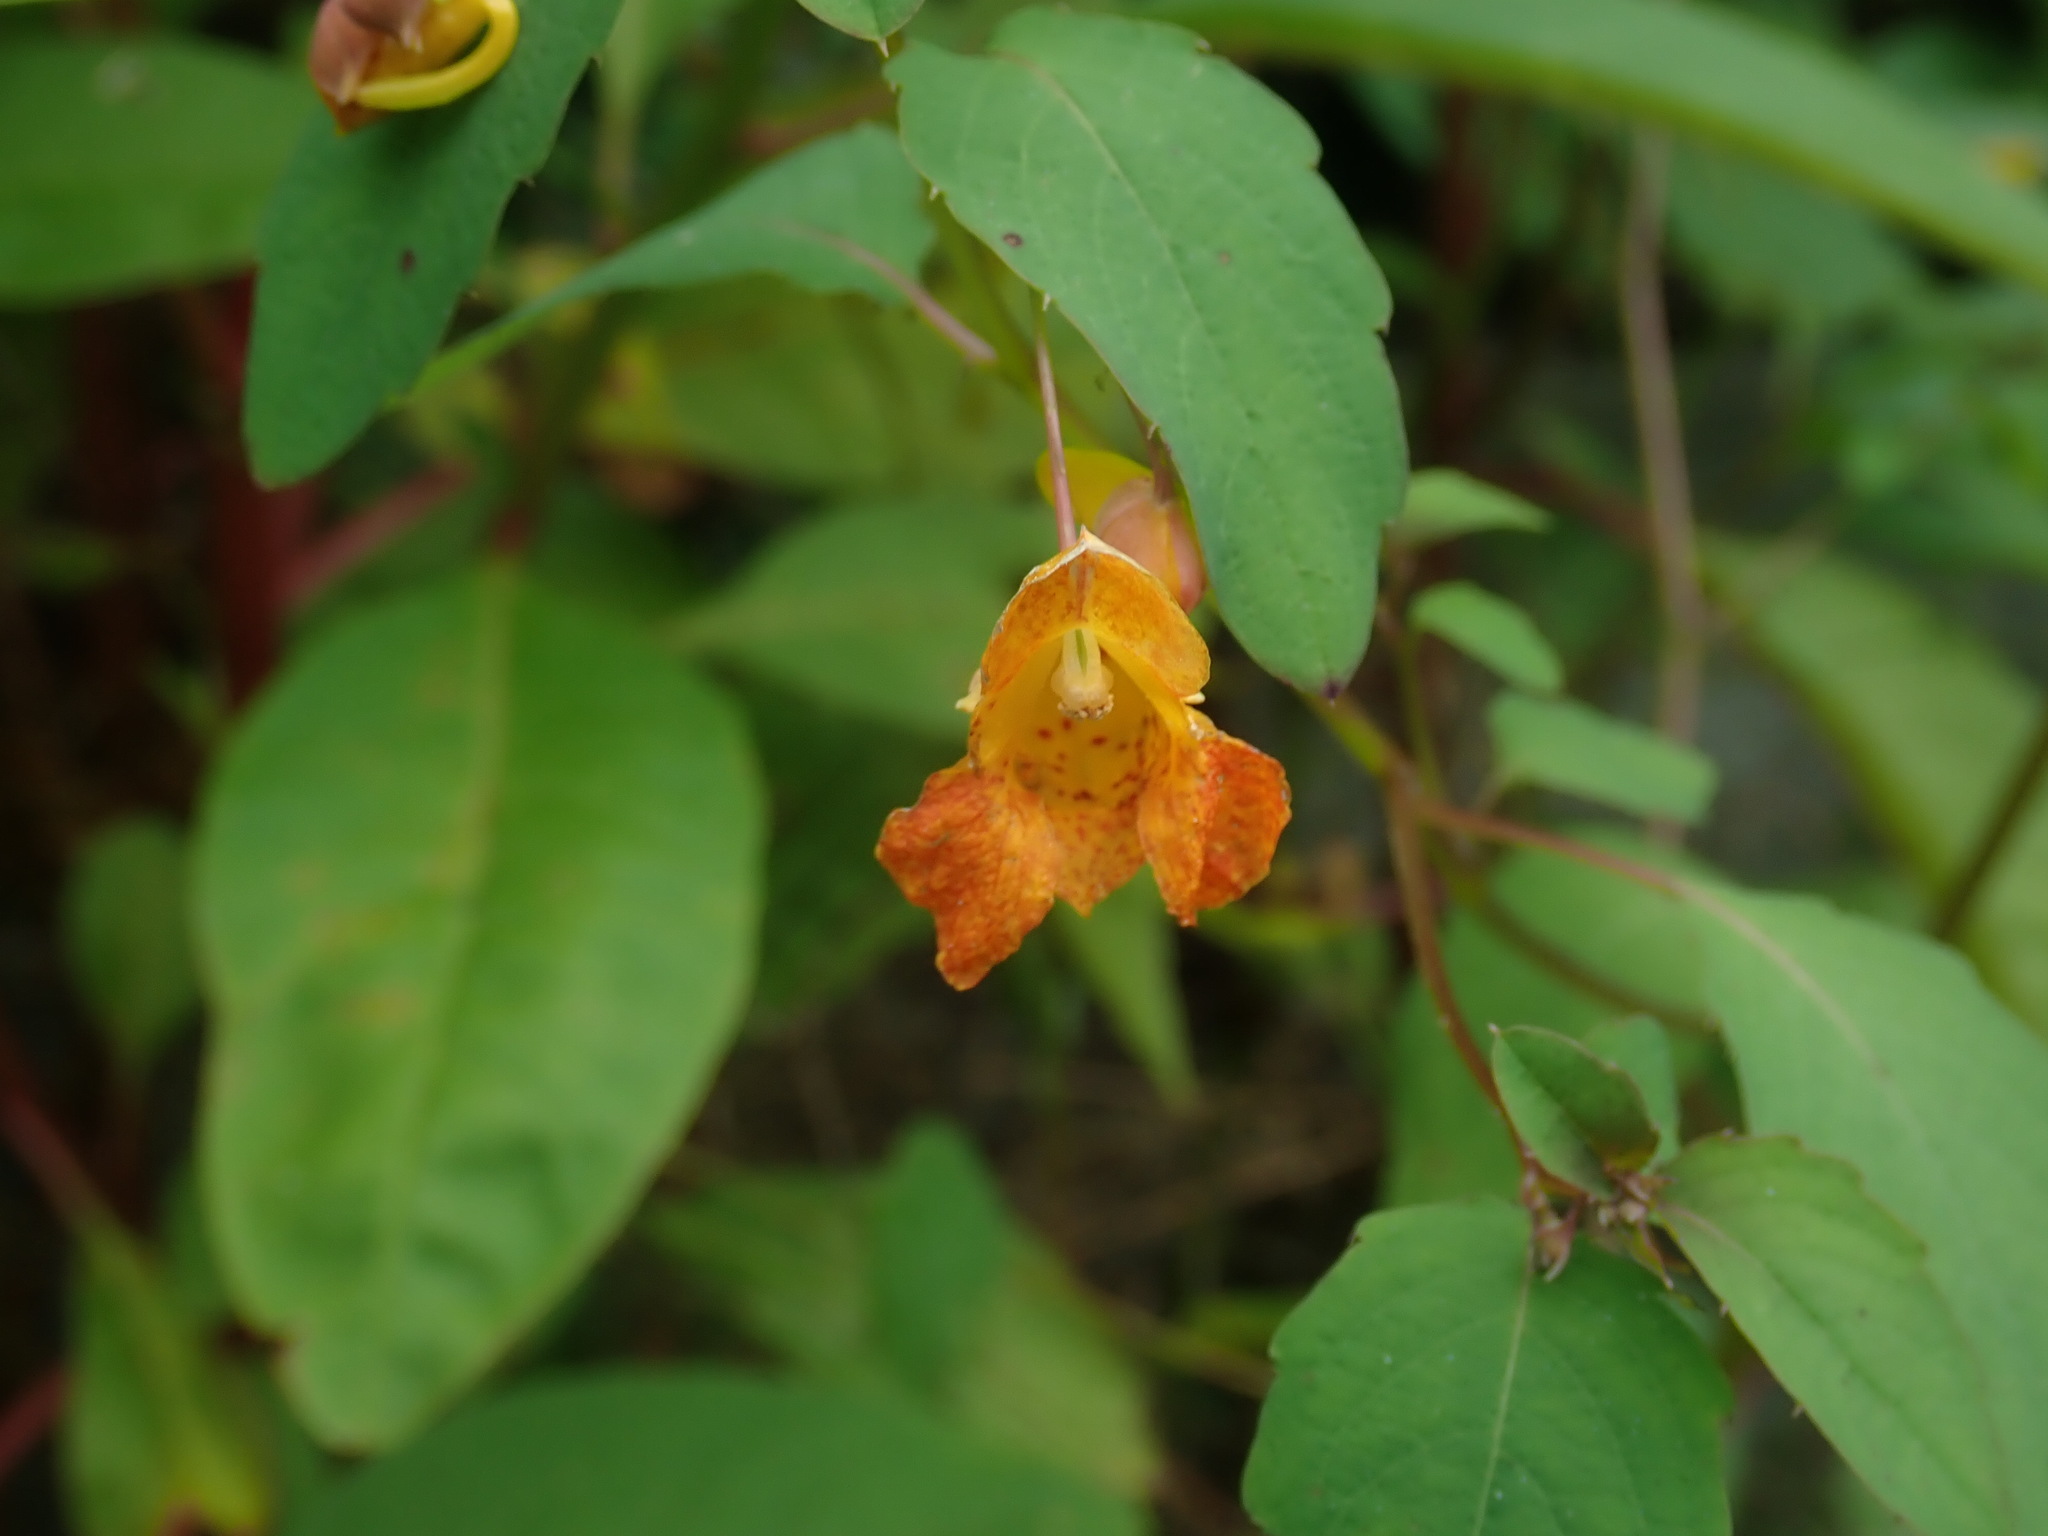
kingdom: Plantae
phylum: Tracheophyta
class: Magnoliopsida
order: Ericales
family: Balsaminaceae
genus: Impatiens
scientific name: Impatiens capensis
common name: Orange balsam
